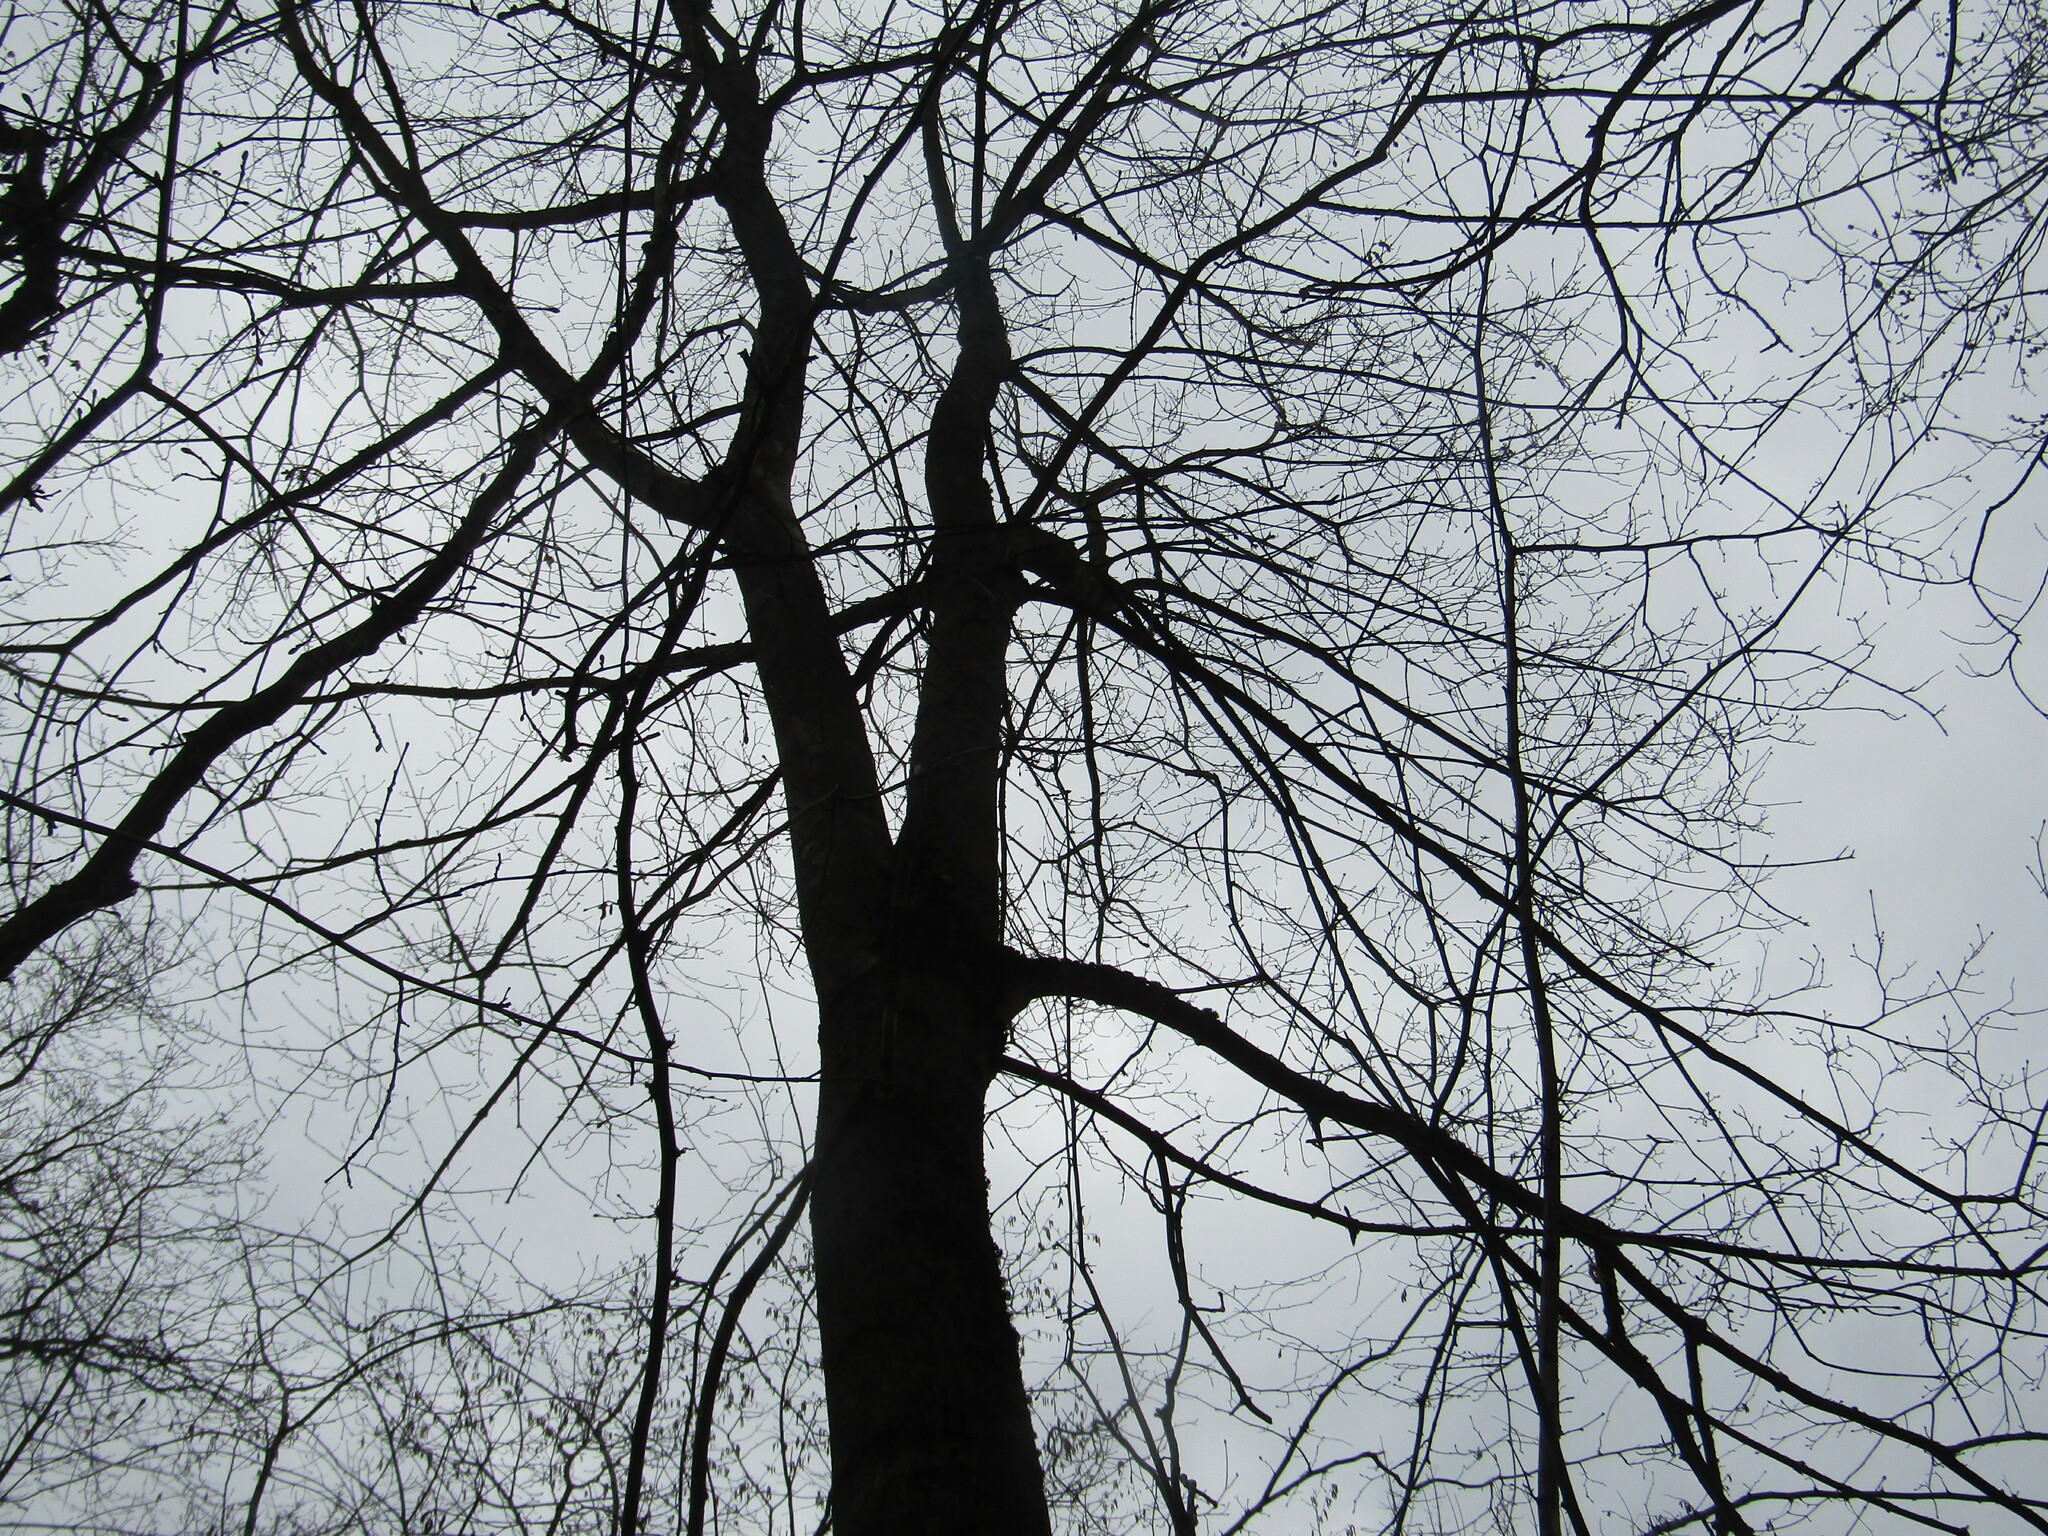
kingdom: Plantae
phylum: Tracheophyta
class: Magnoliopsida
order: Sapindales
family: Sapindaceae
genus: Acer
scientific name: Acer platanoides
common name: Norway maple
